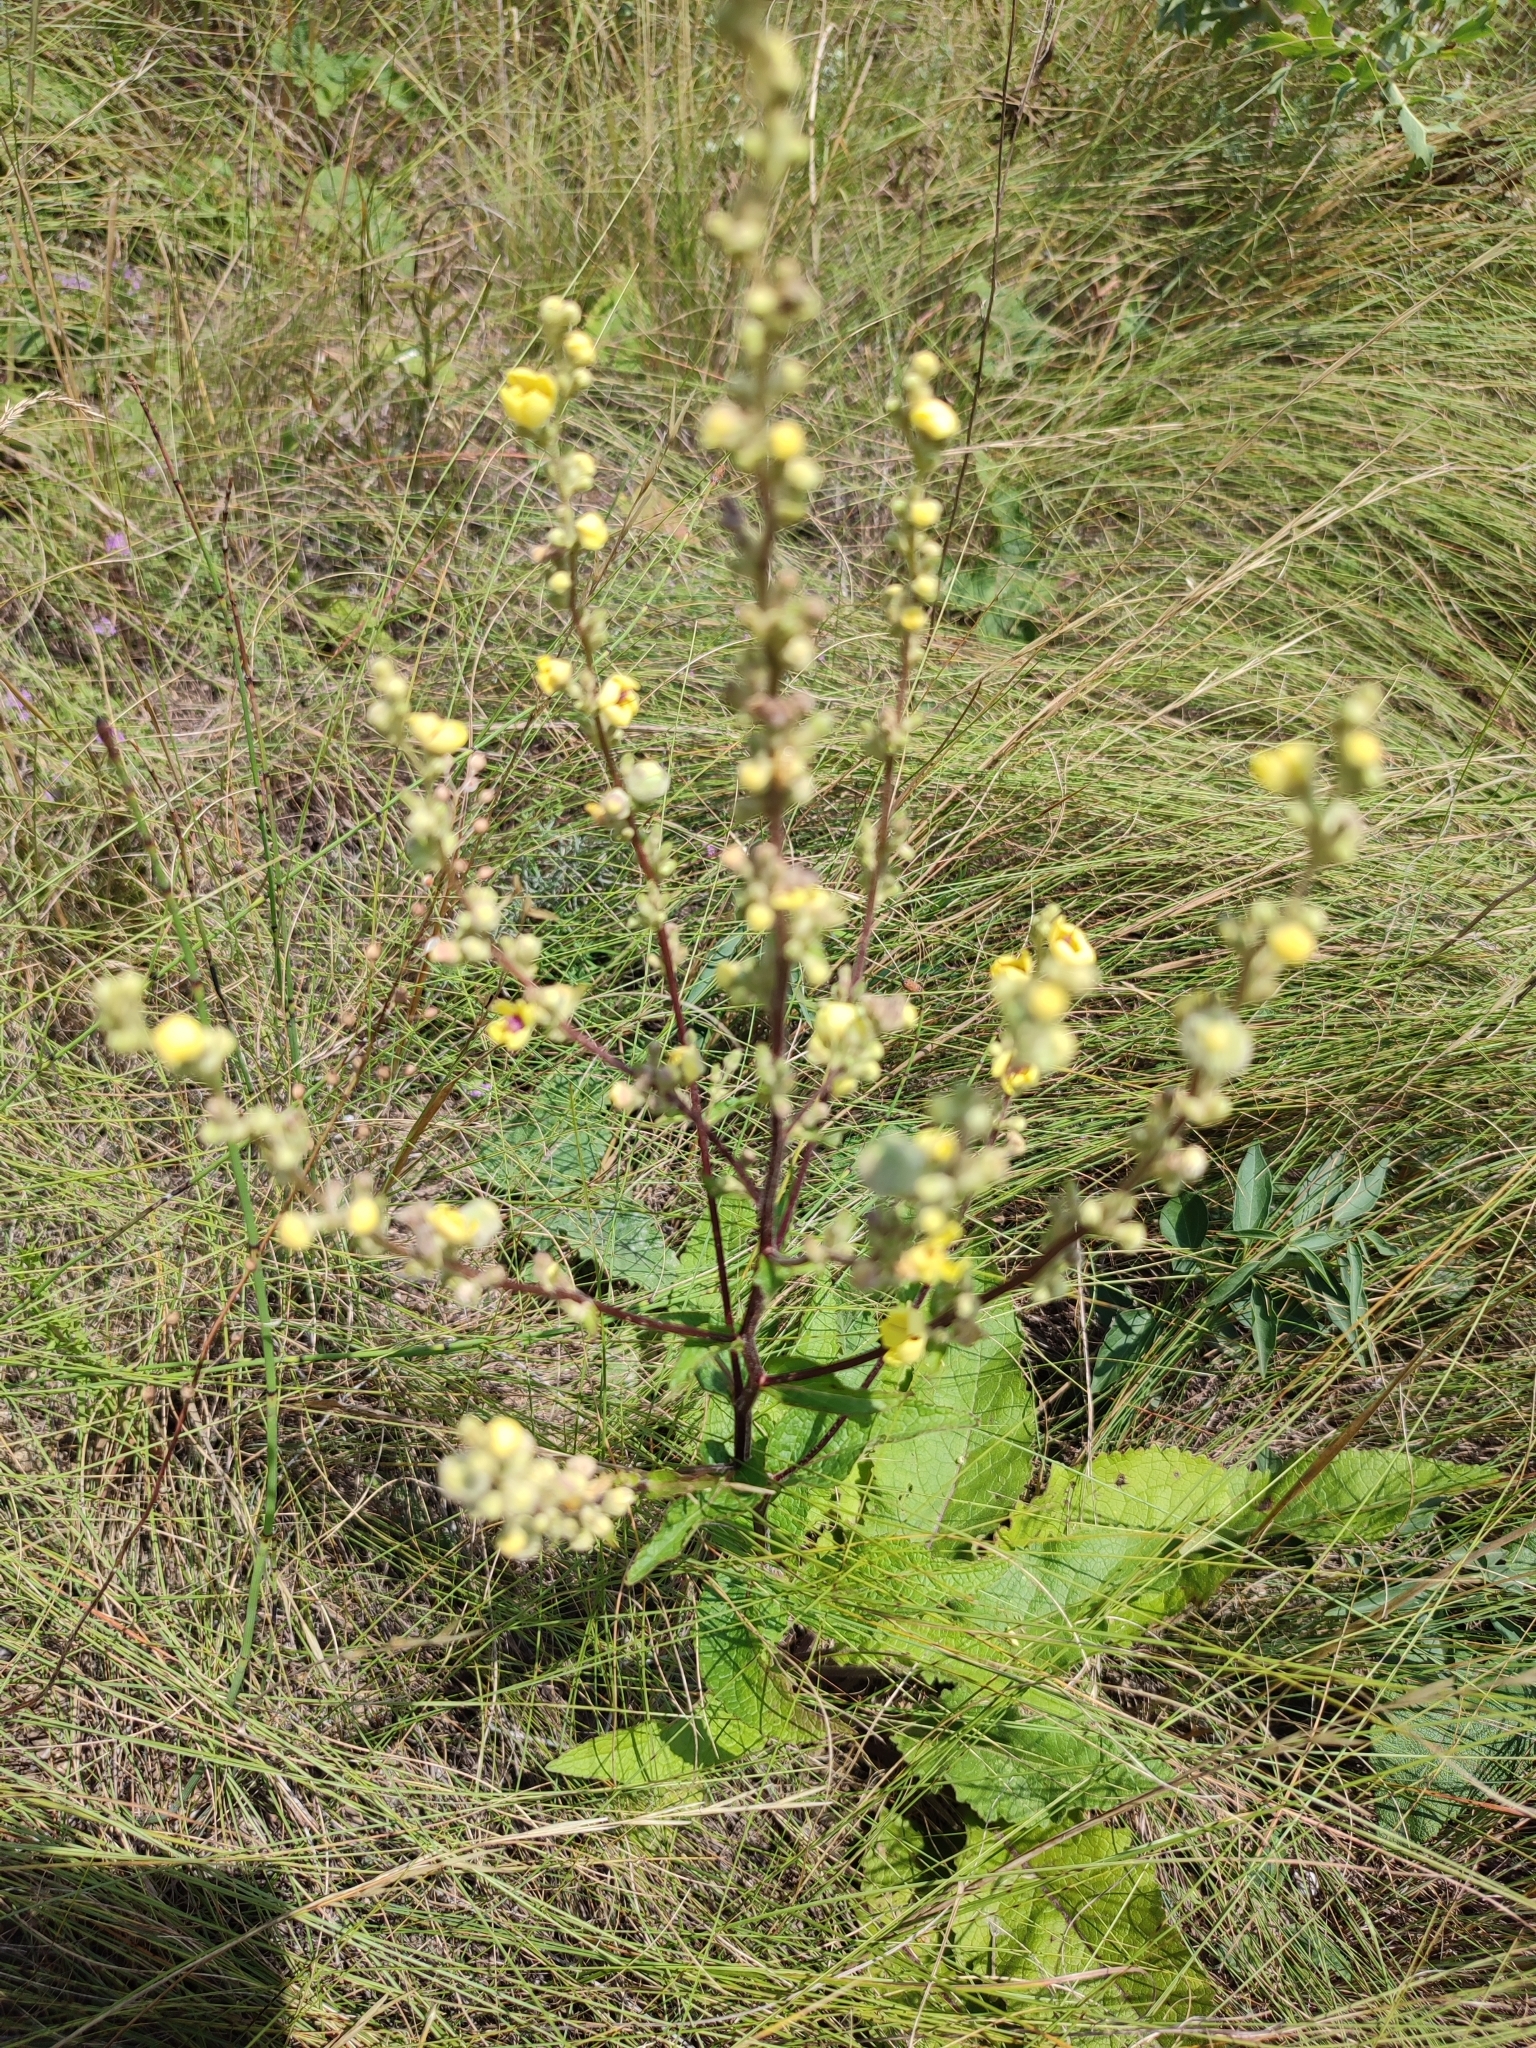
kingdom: Plantae
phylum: Tracheophyta
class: Magnoliopsida
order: Lamiales
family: Scrophulariaceae
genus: Verbascum
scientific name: Verbascum chaixii
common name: Nettle-leaved mullein
